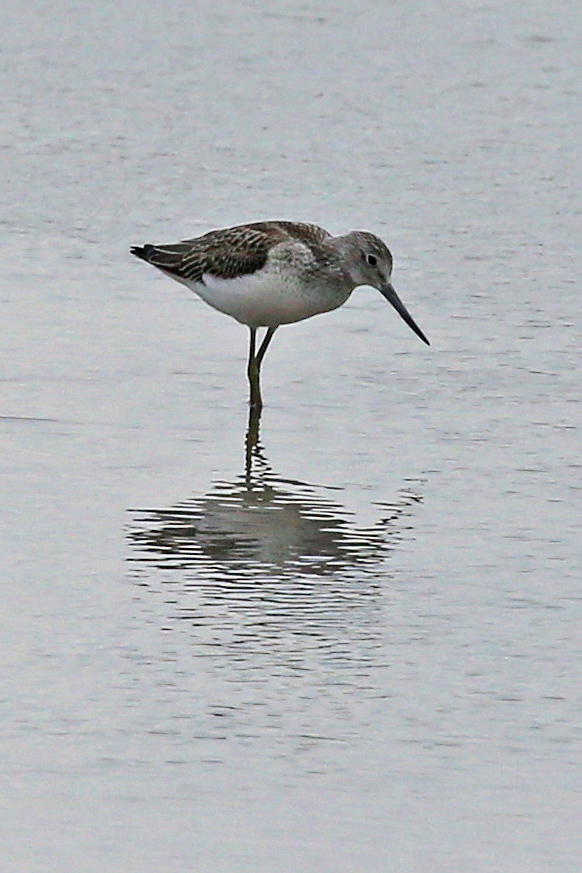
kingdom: Animalia
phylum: Chordata
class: Aves
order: Charadriiformes
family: Scolopacidae
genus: Tringa
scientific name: Tringa nebularia
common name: Common greenshank
